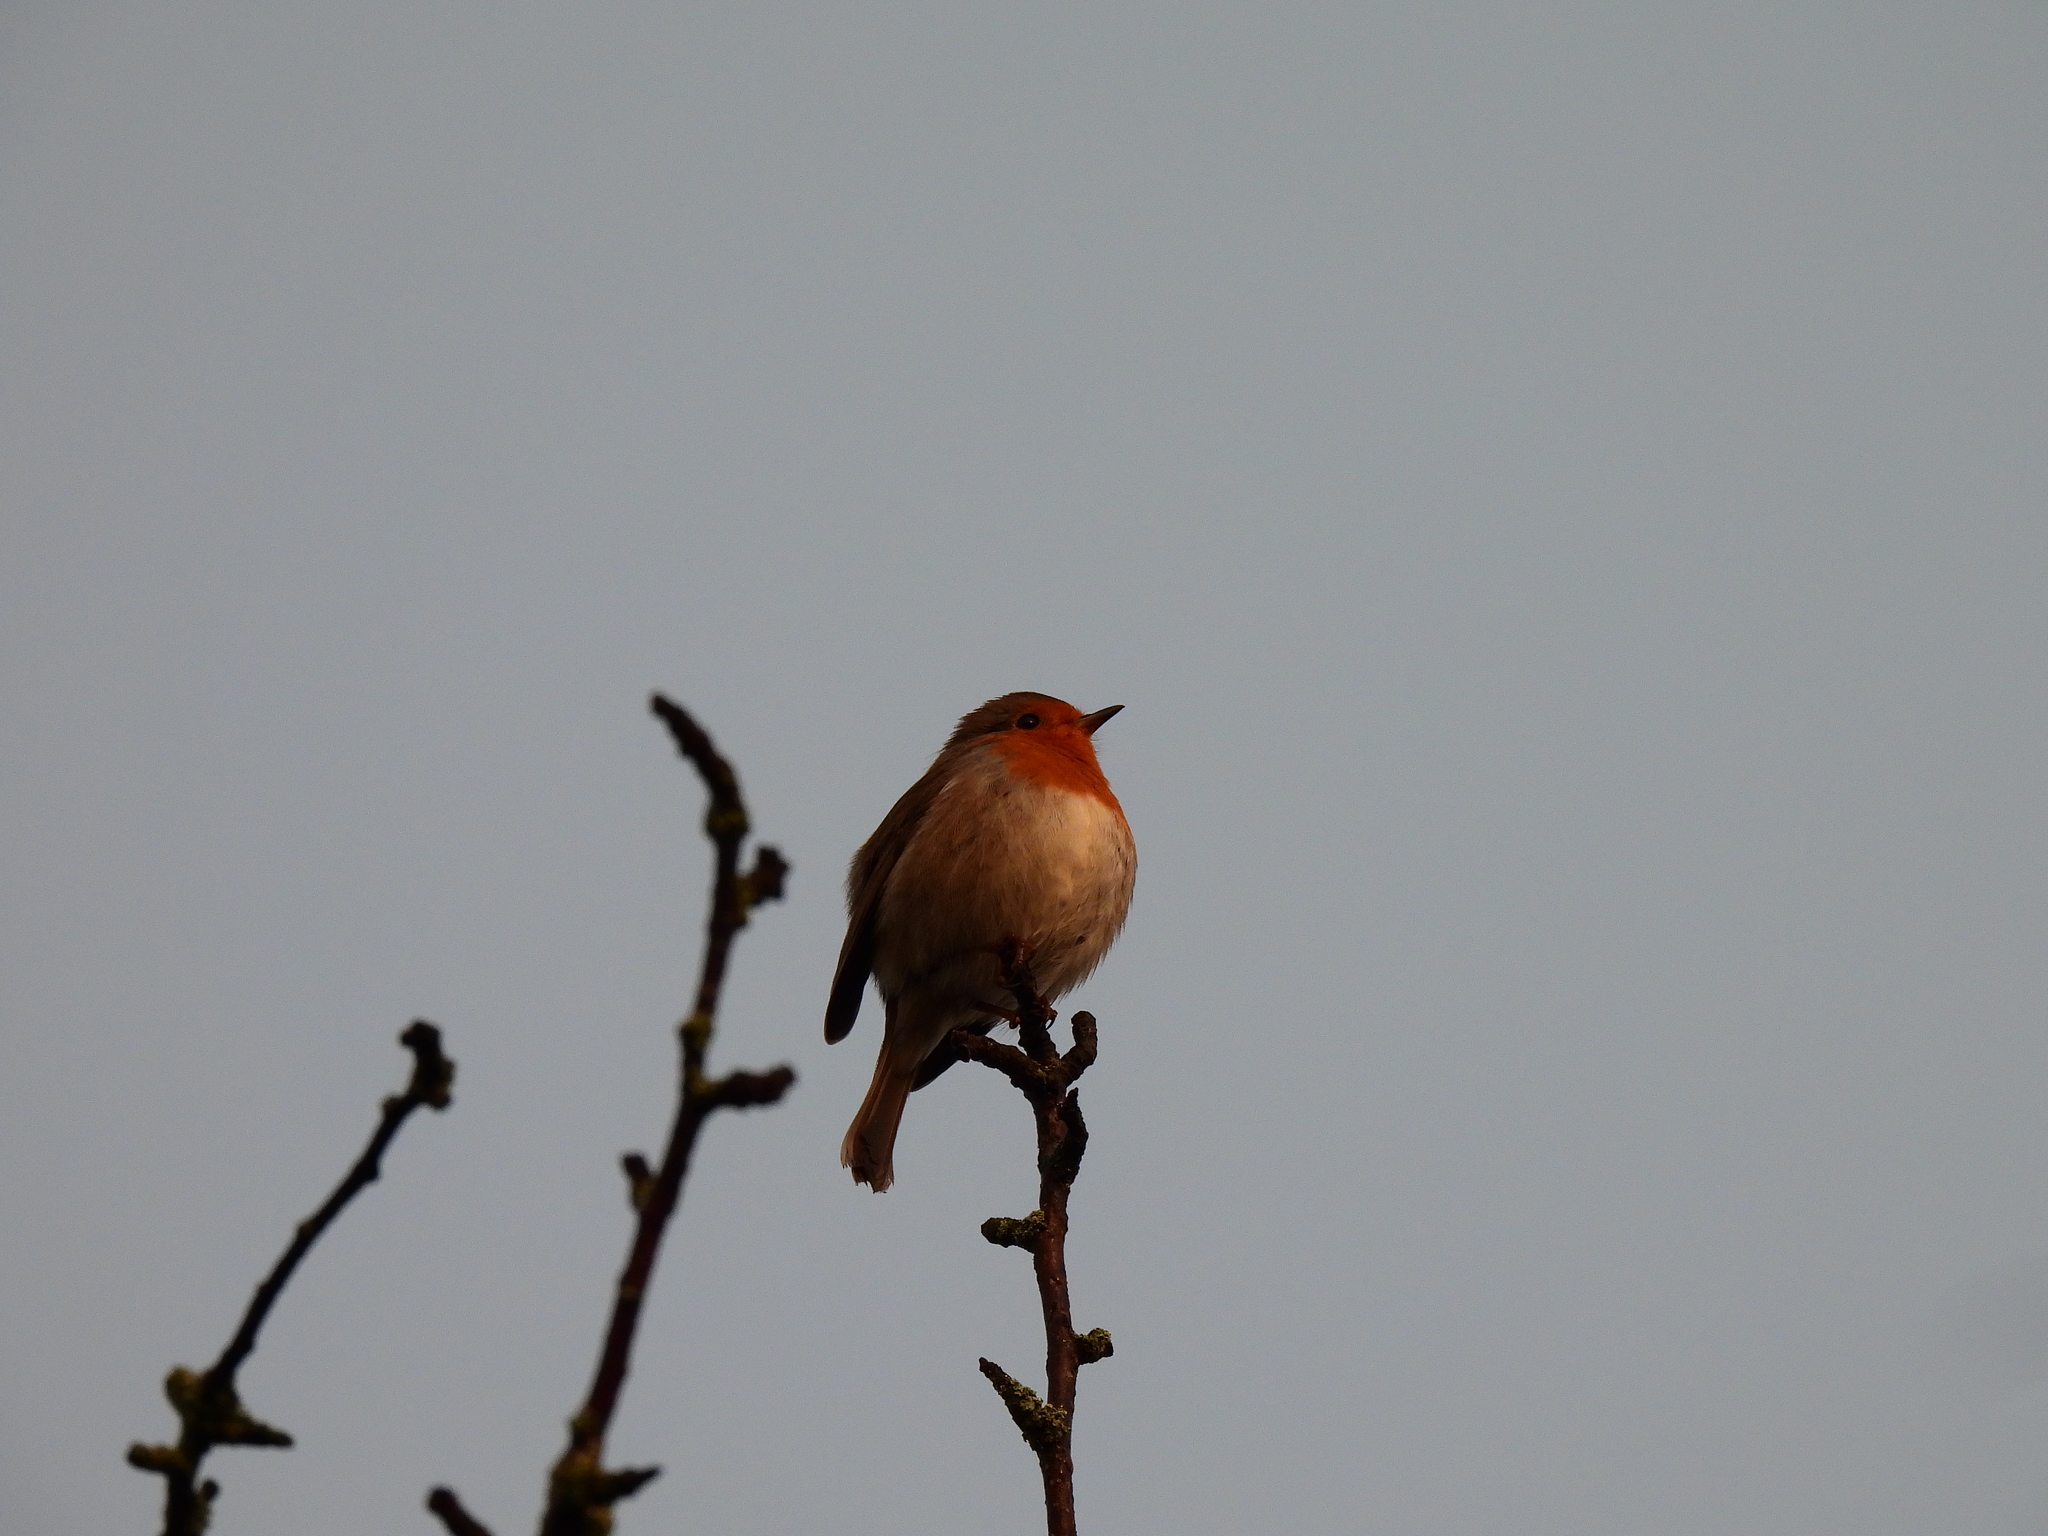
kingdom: Animalia
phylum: Chordata
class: Aves
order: Passeriformes
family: Muscicapidae
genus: Erithacus
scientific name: Erithacus rubecula
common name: European robin
